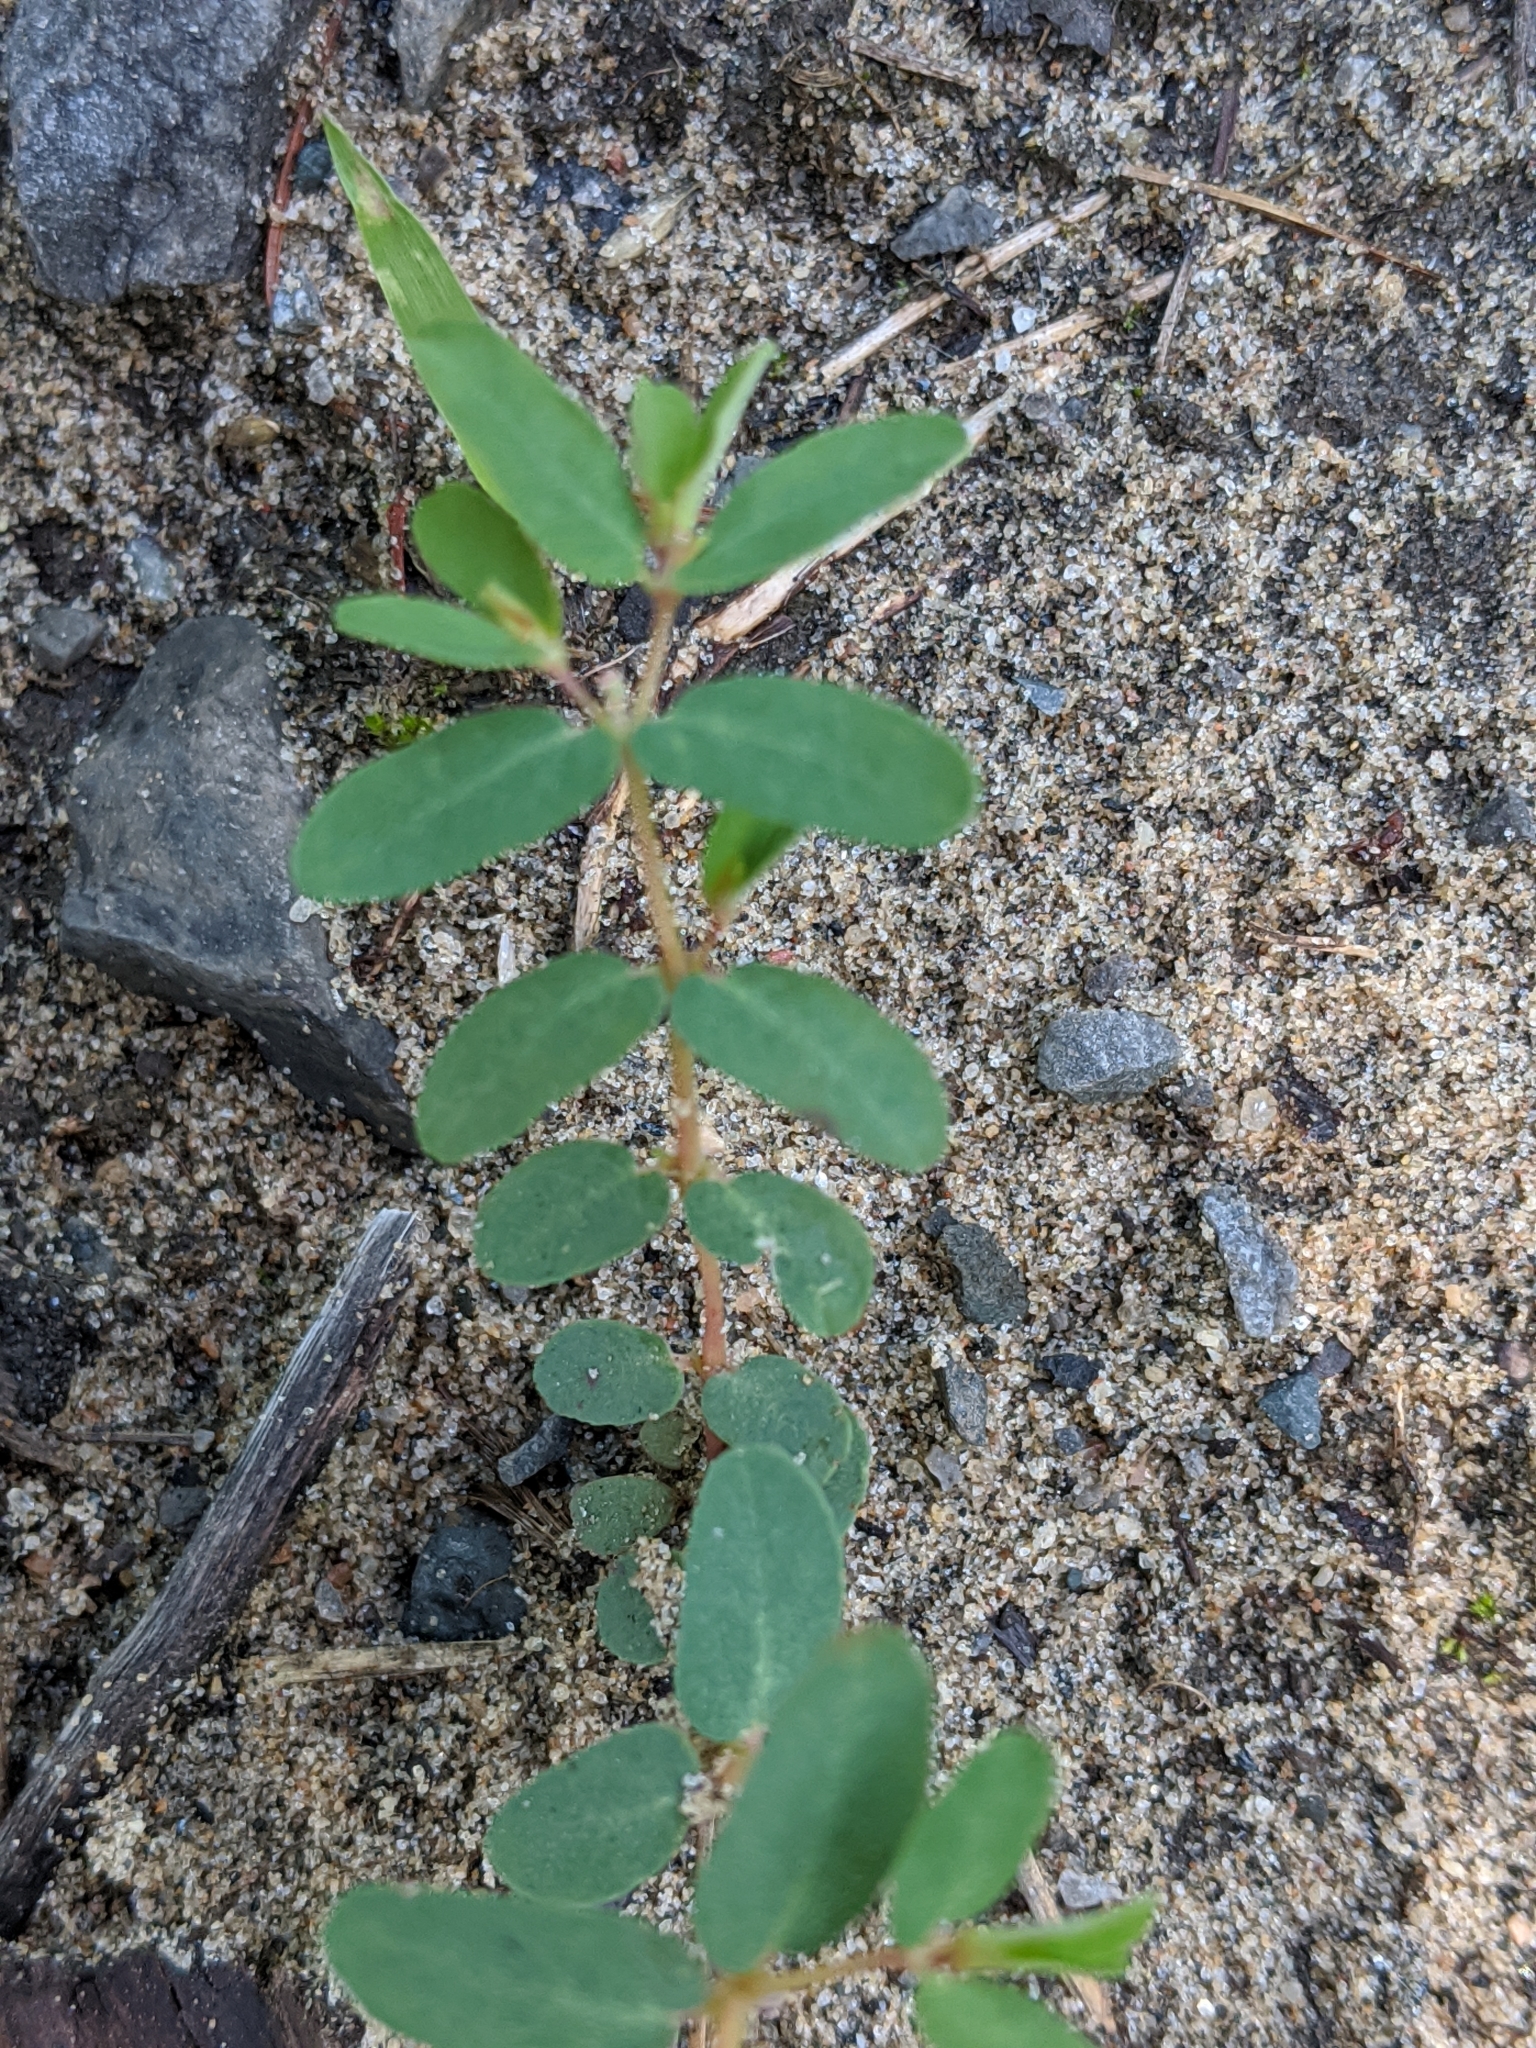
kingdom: Plantae
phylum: Tracheophyta
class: Magnoliopsida
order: Malpighiales
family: Euphorbiaceae
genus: Euphorbia
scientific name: Euphorbia glyptosperma
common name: Corrugate-seeded spurge
